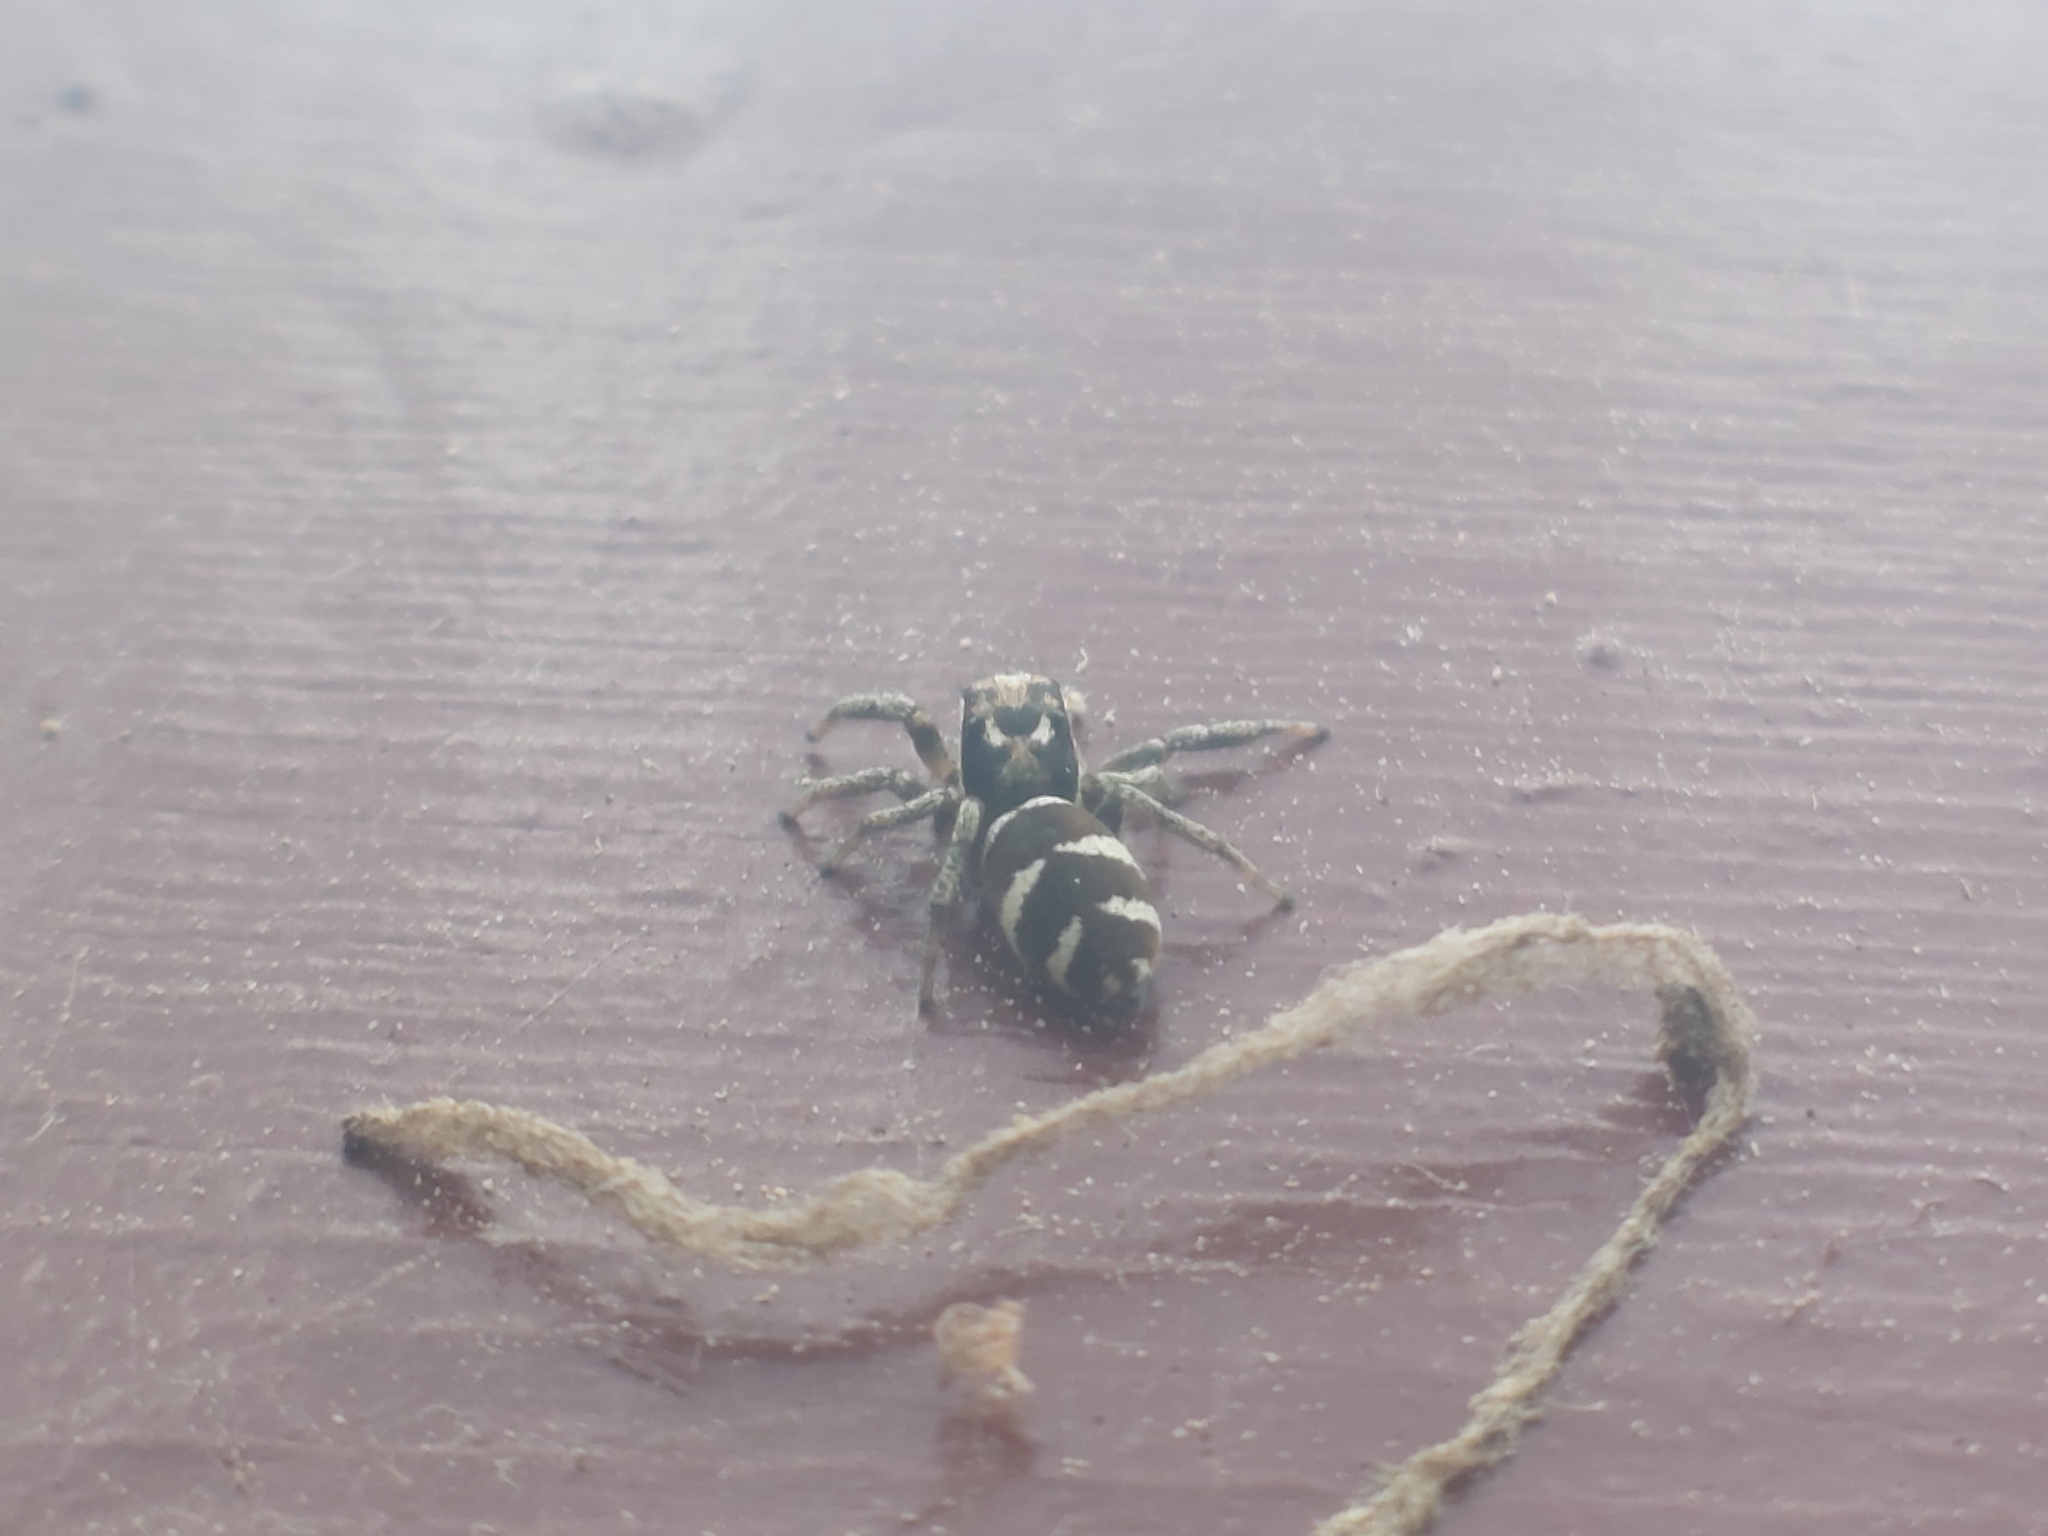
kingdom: Animalia
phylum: Arthropoda
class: Arachnida
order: Araneae
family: Salticidae
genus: Salticus
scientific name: Salticus scenicus
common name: Zebra jumper
